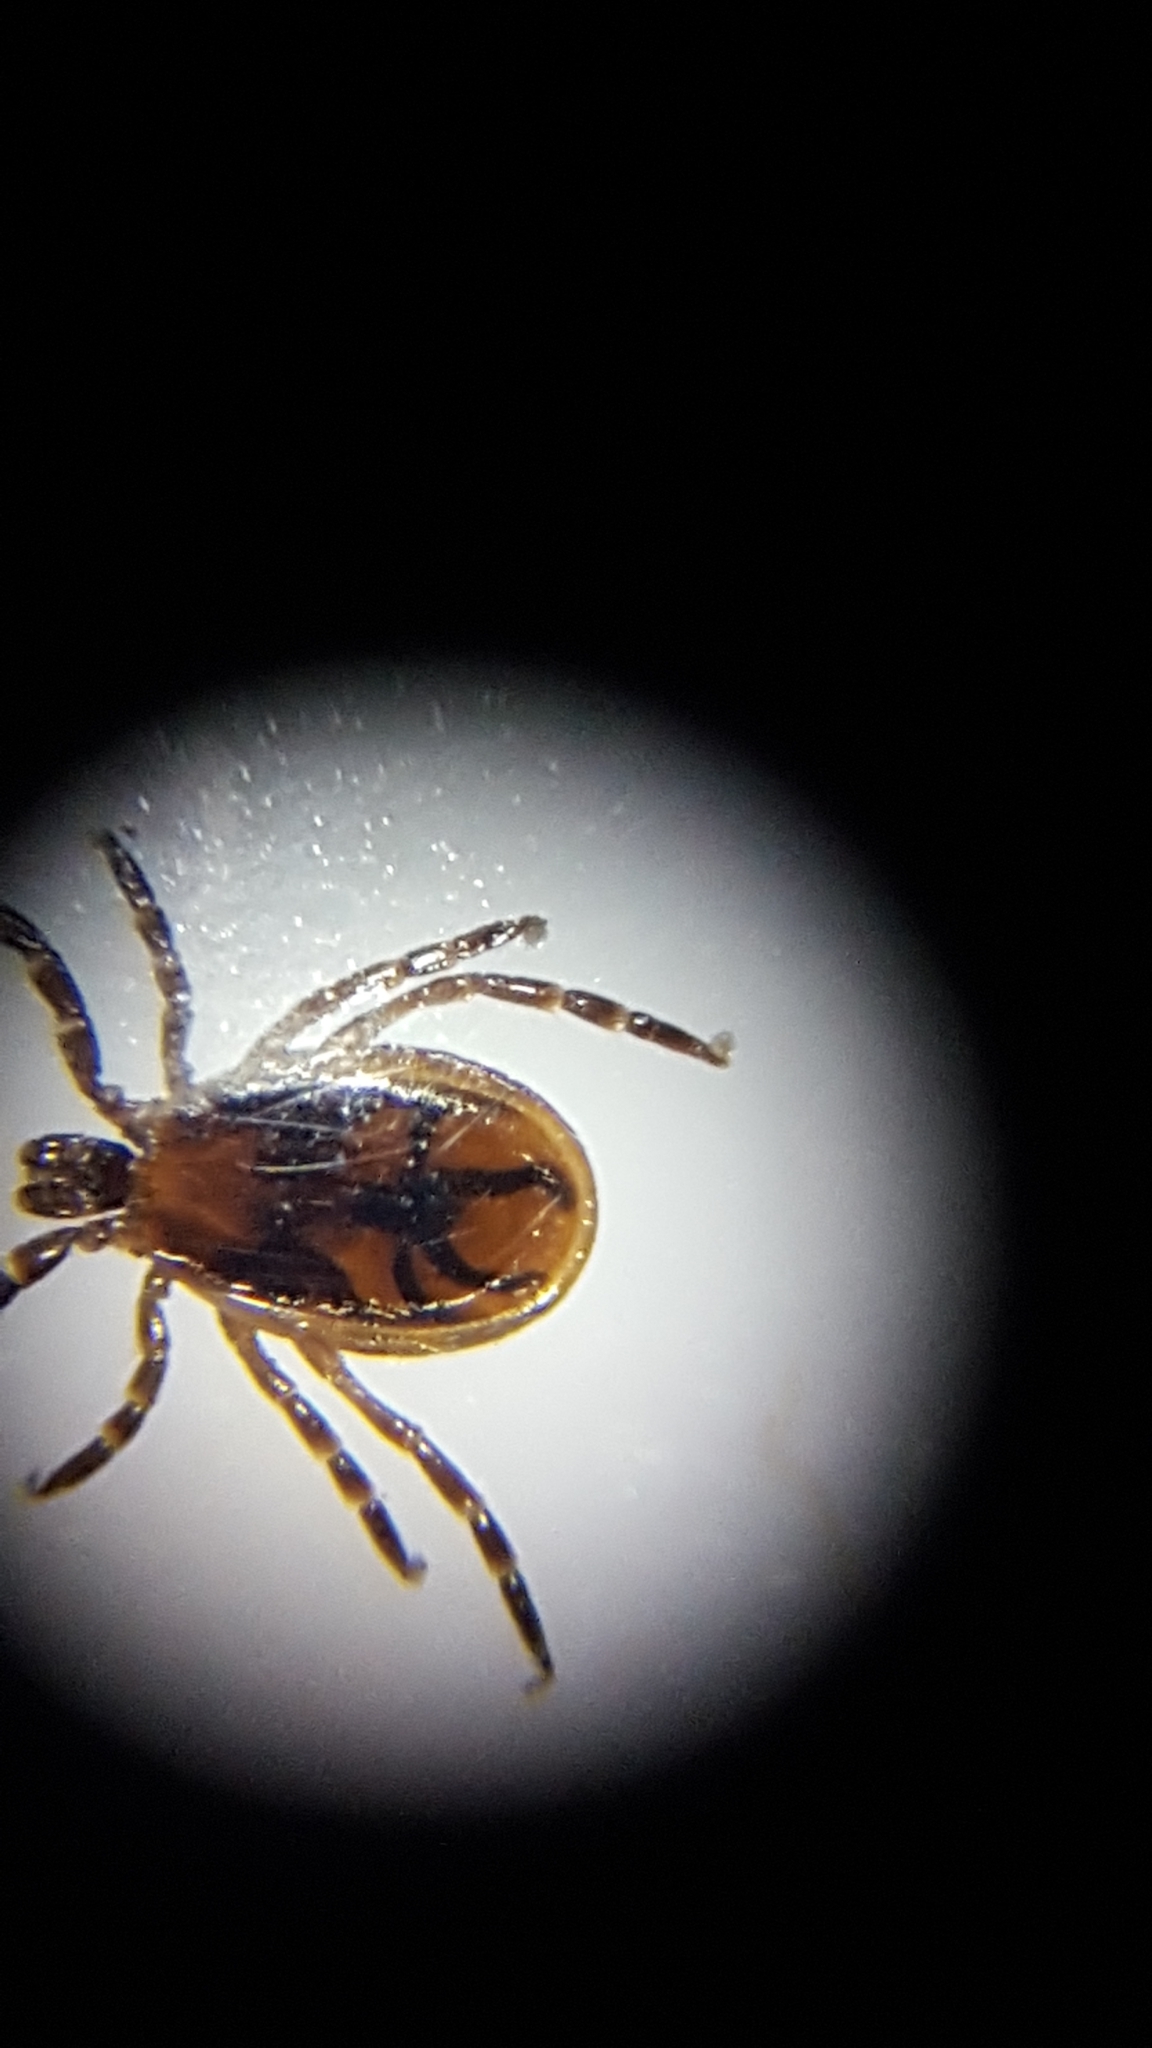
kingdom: Animalia
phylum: Arthropoda
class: Arachnida
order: Ixodida
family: Ixodidae
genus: Ixodes
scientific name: Ixodes scapularis
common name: Black legged tick
